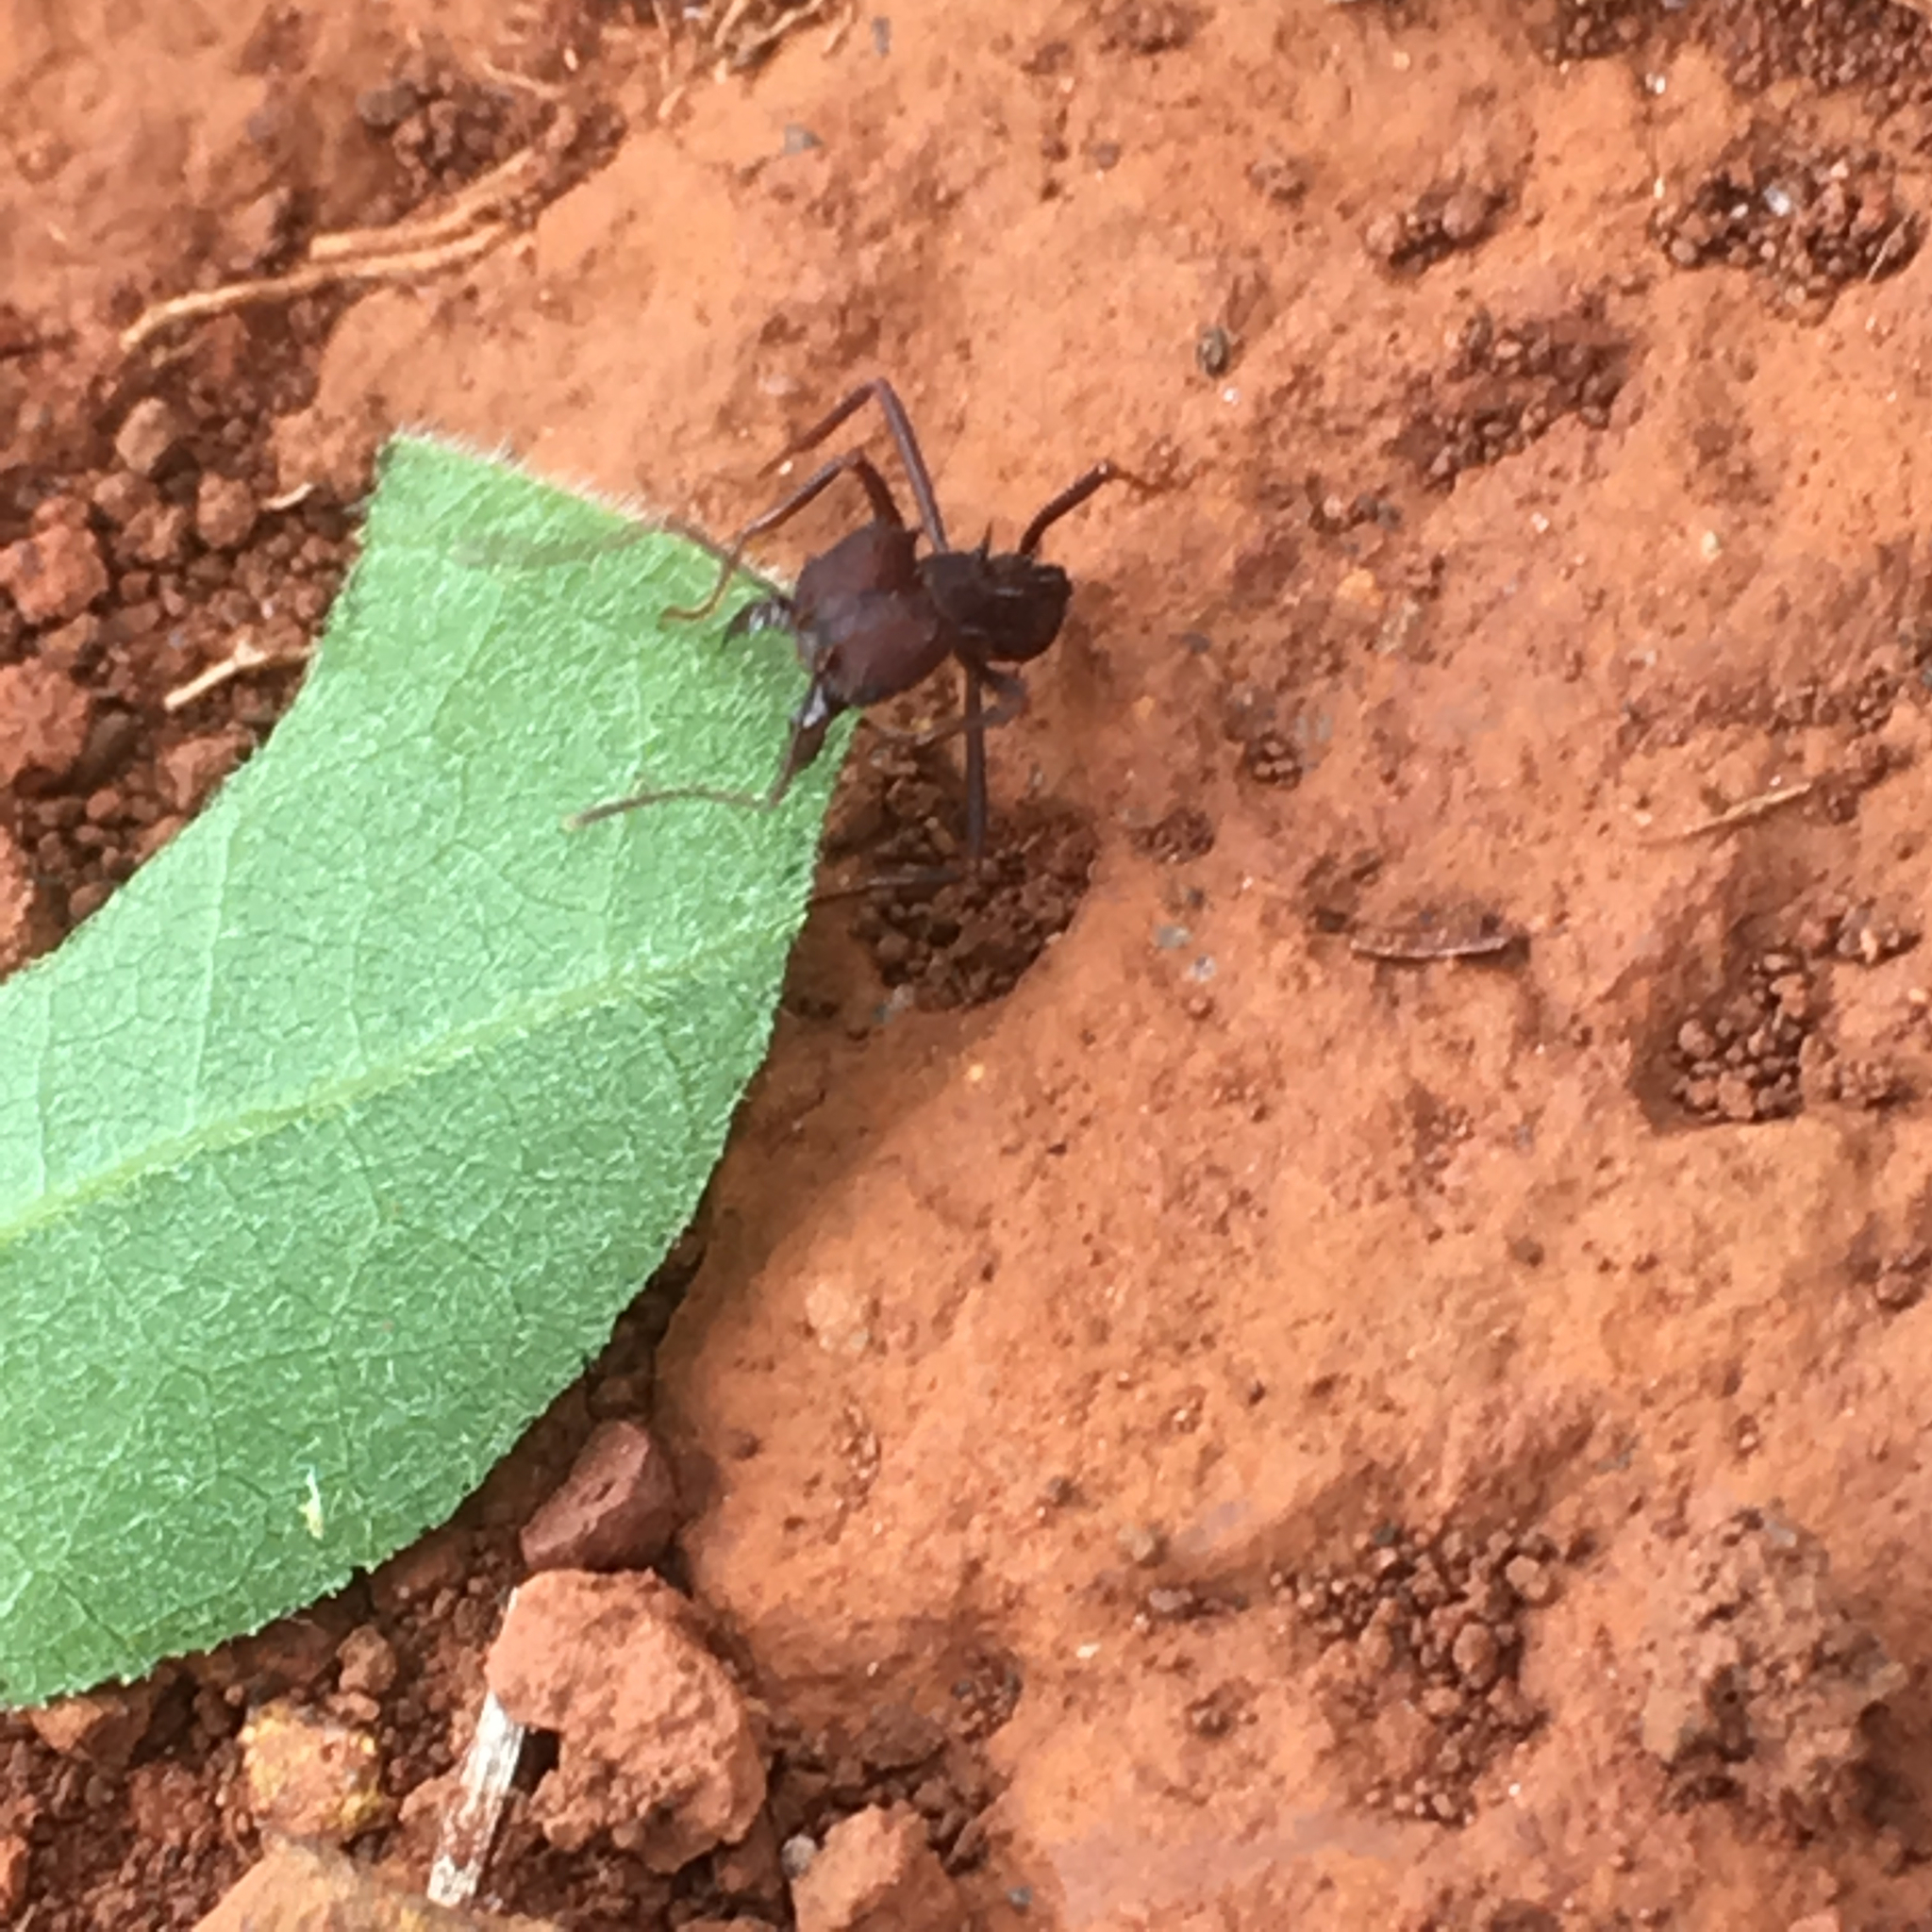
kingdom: Animalia
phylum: Arthropoda
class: Insecta
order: Hymenoptera
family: Formicidae
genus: Atta
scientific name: Atta sexdens
